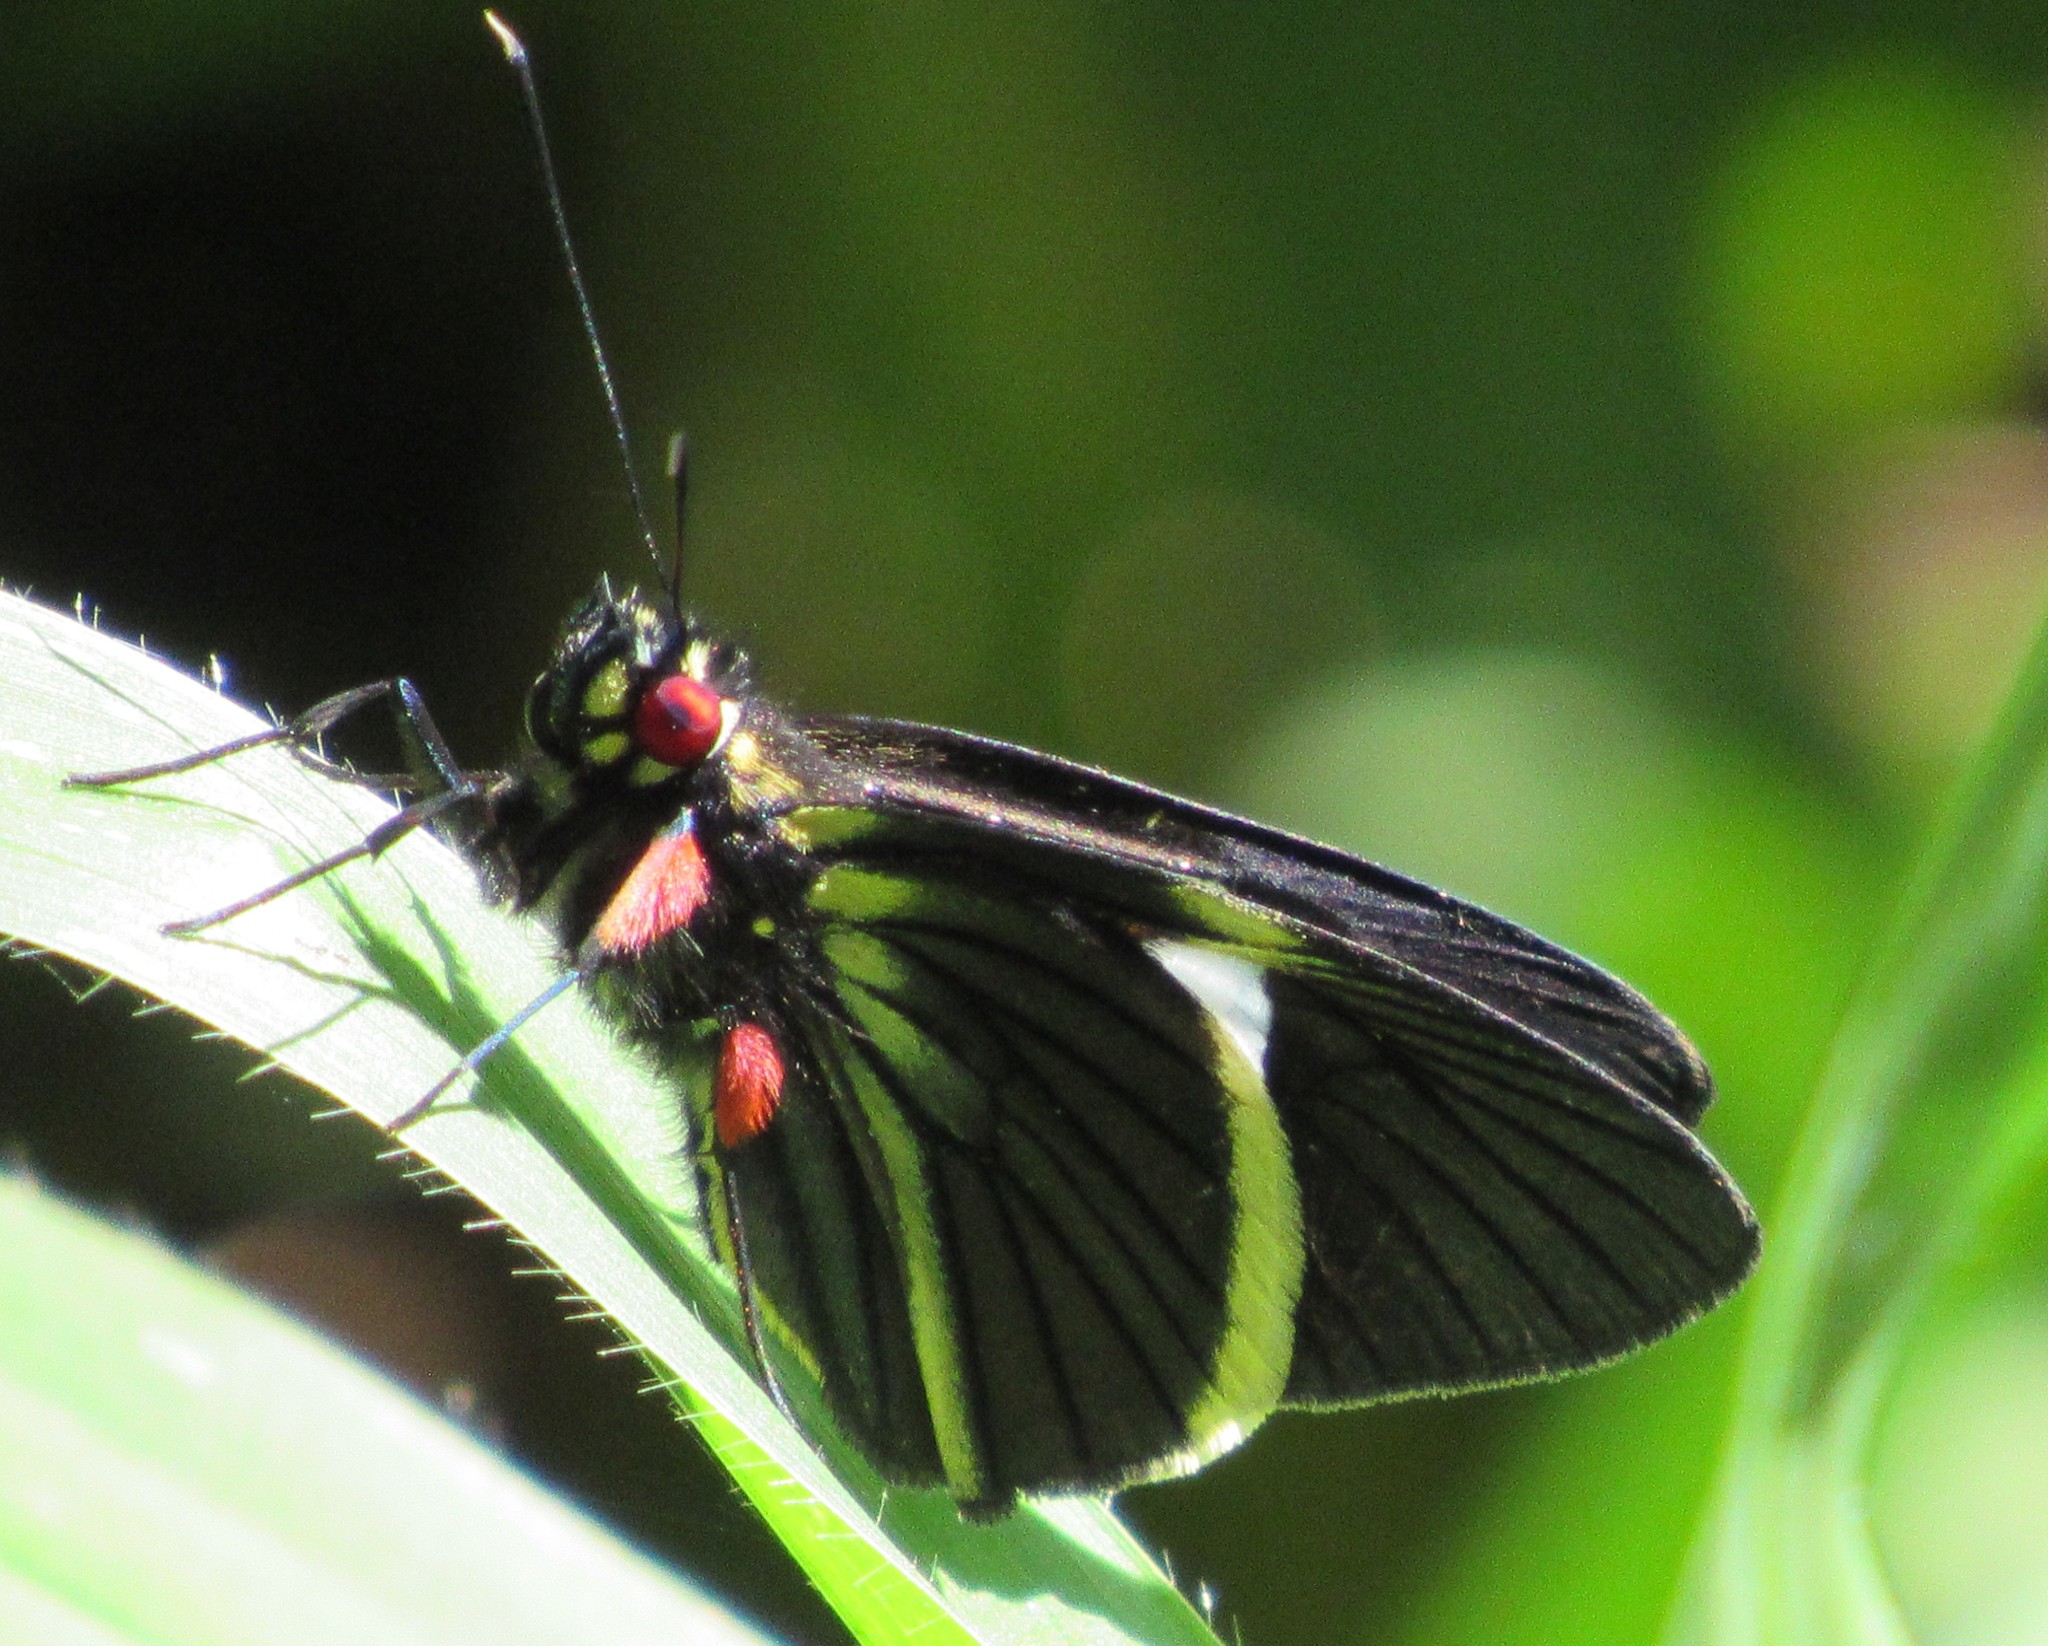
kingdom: Animalia
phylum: Arthropoda
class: Insecta
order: Lepidoptera
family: Hesperiidae
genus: Orses
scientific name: Orses itea
